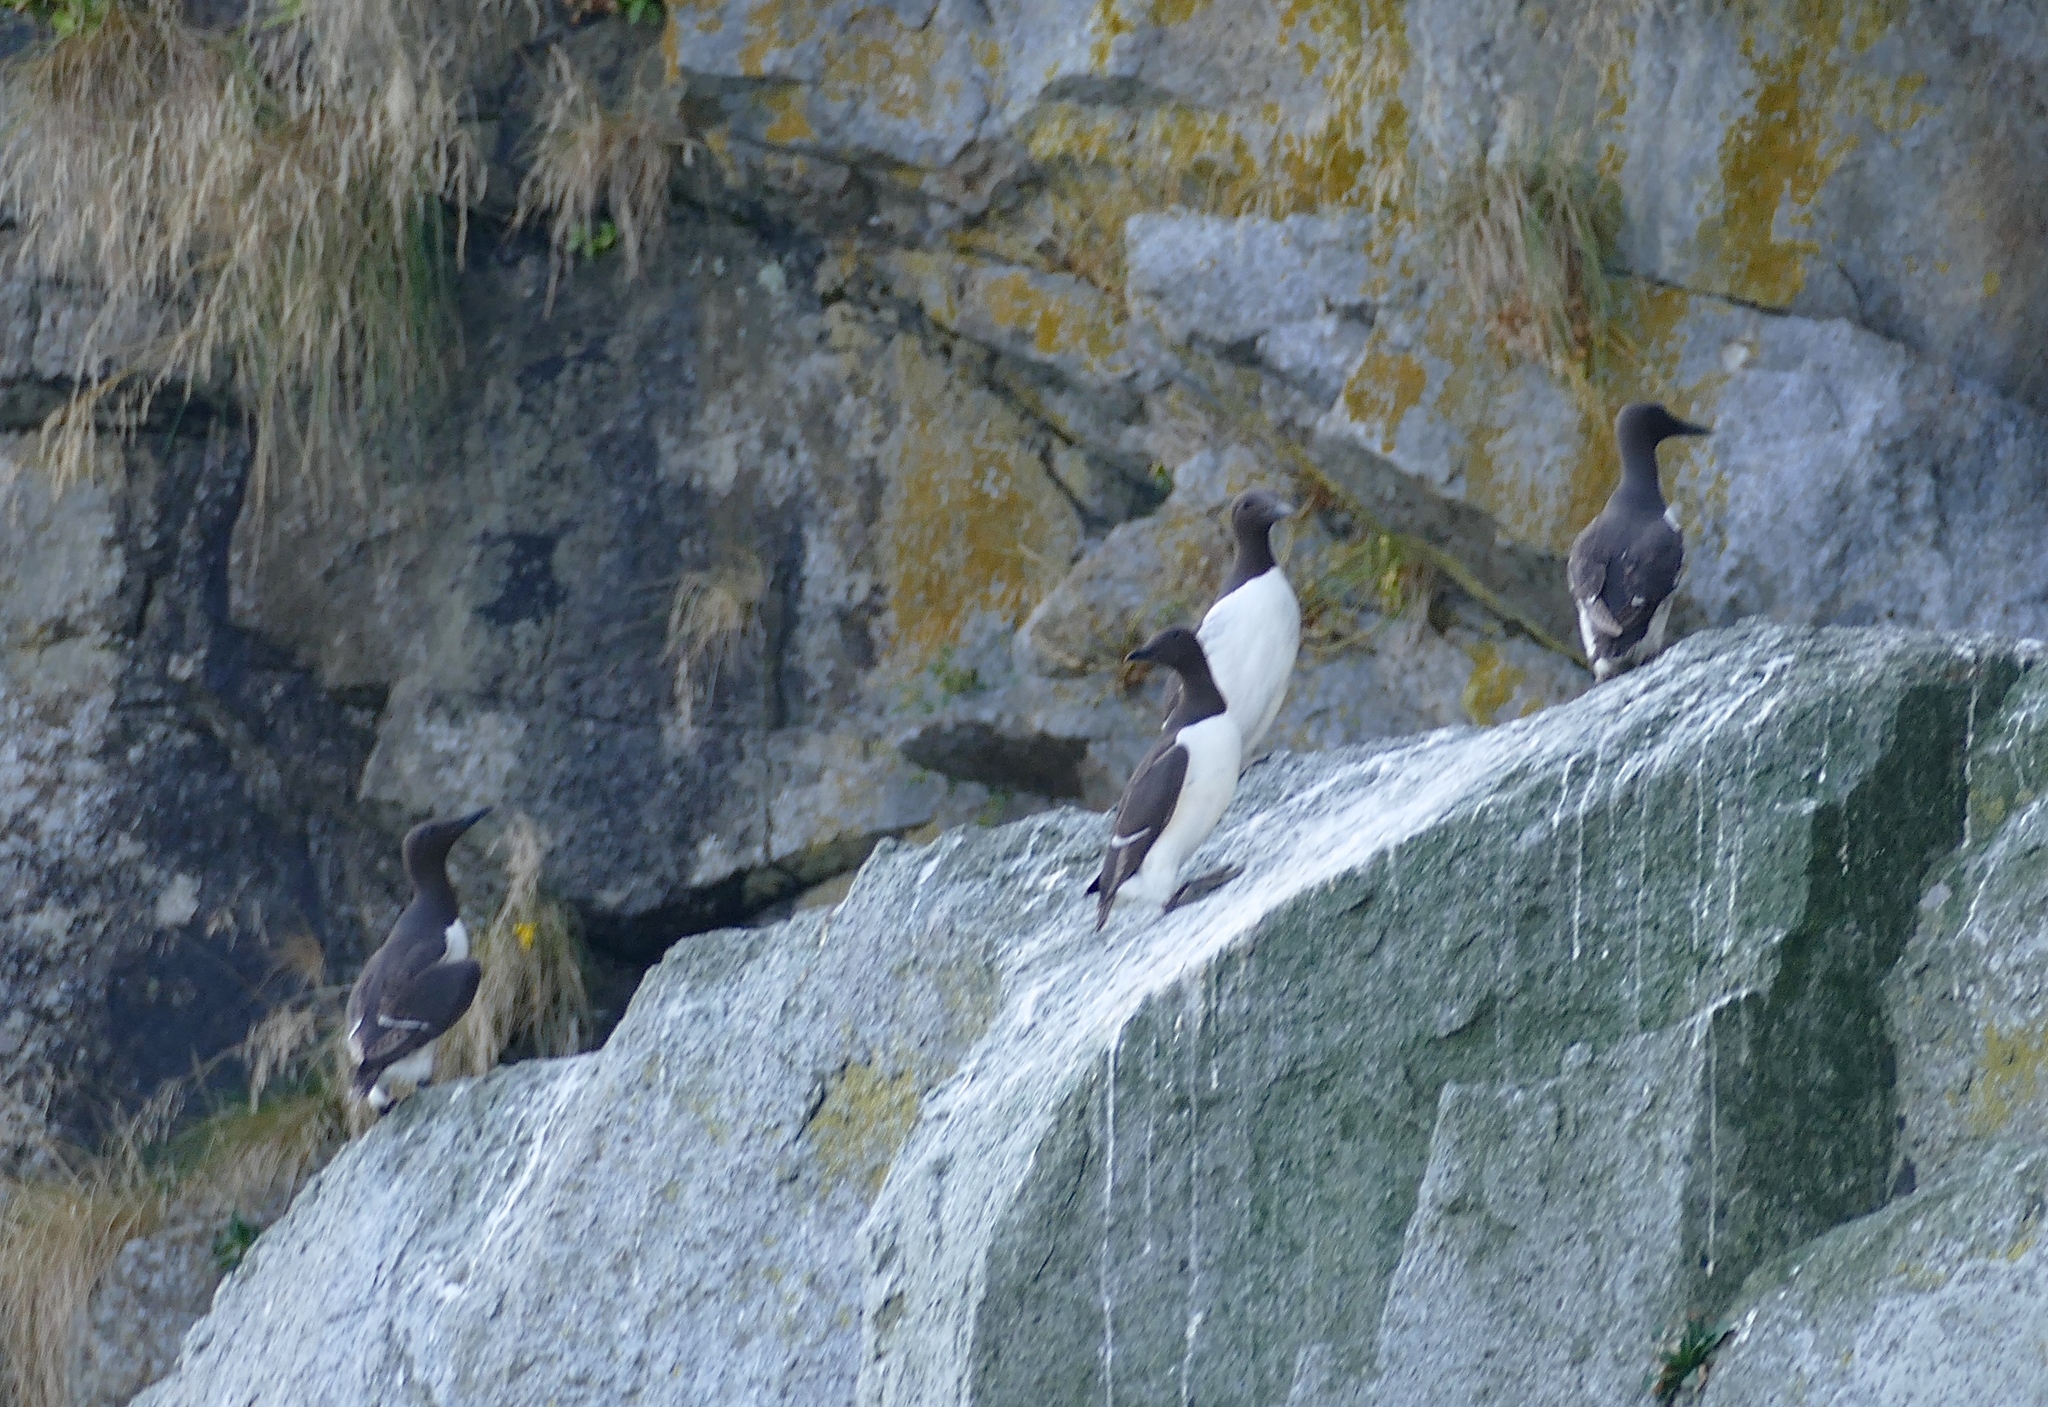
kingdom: Animalia
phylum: Chordata
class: Aves
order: Charadriiformes
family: Alcidae
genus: Uria
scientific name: Uria aalge
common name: Common murre
